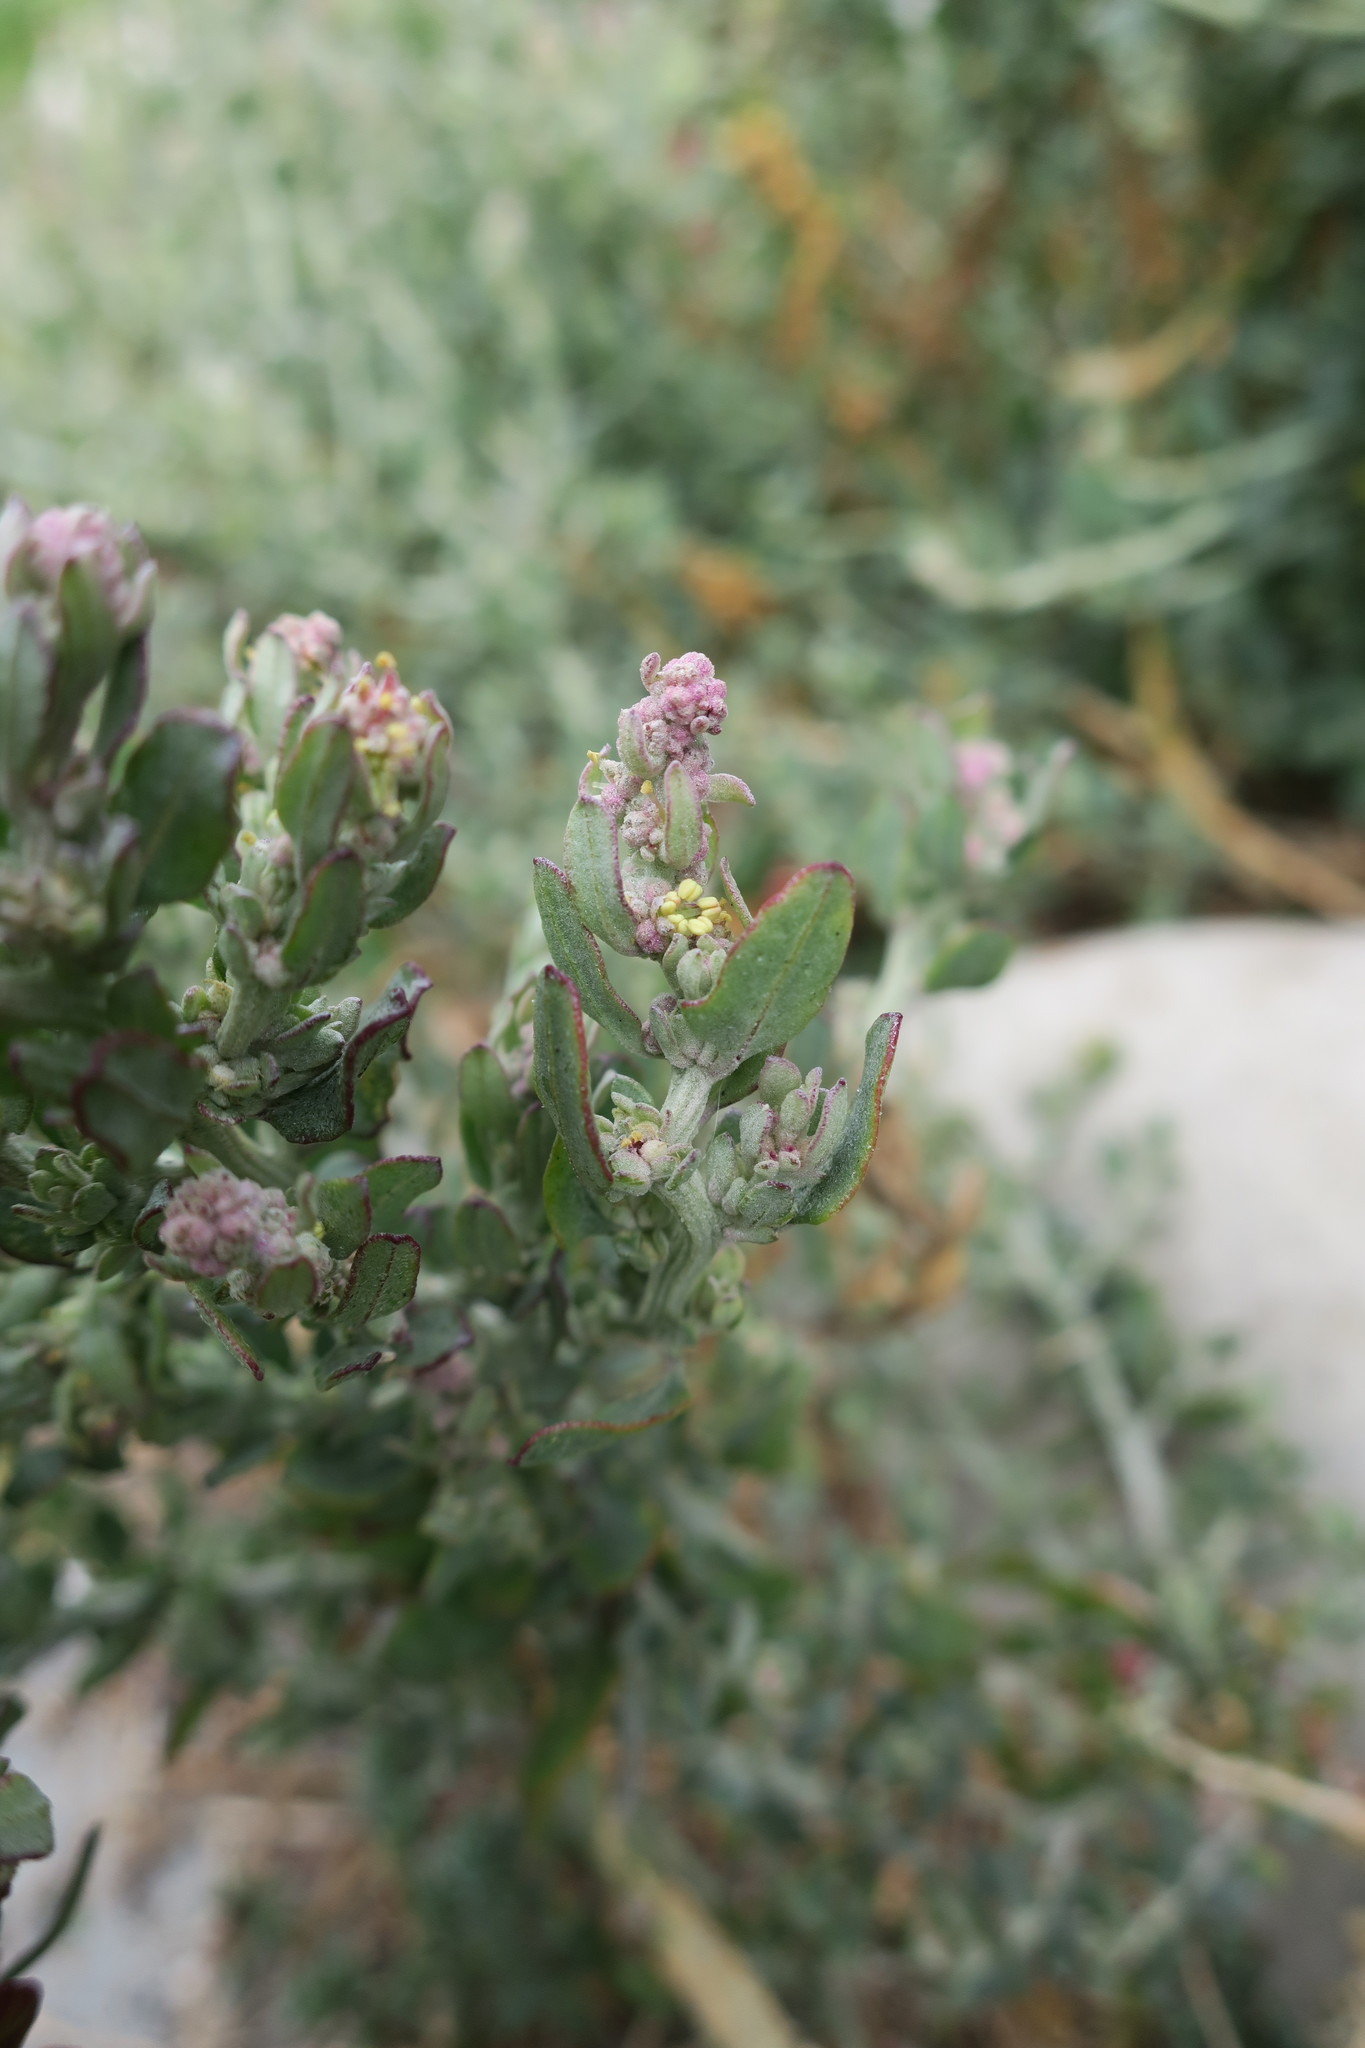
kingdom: Plantae
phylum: Tracheophyta
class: Magnoliopsida
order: Caryophyllales
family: Amaranthaceae
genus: Exomis
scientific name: Exomis microphylla
